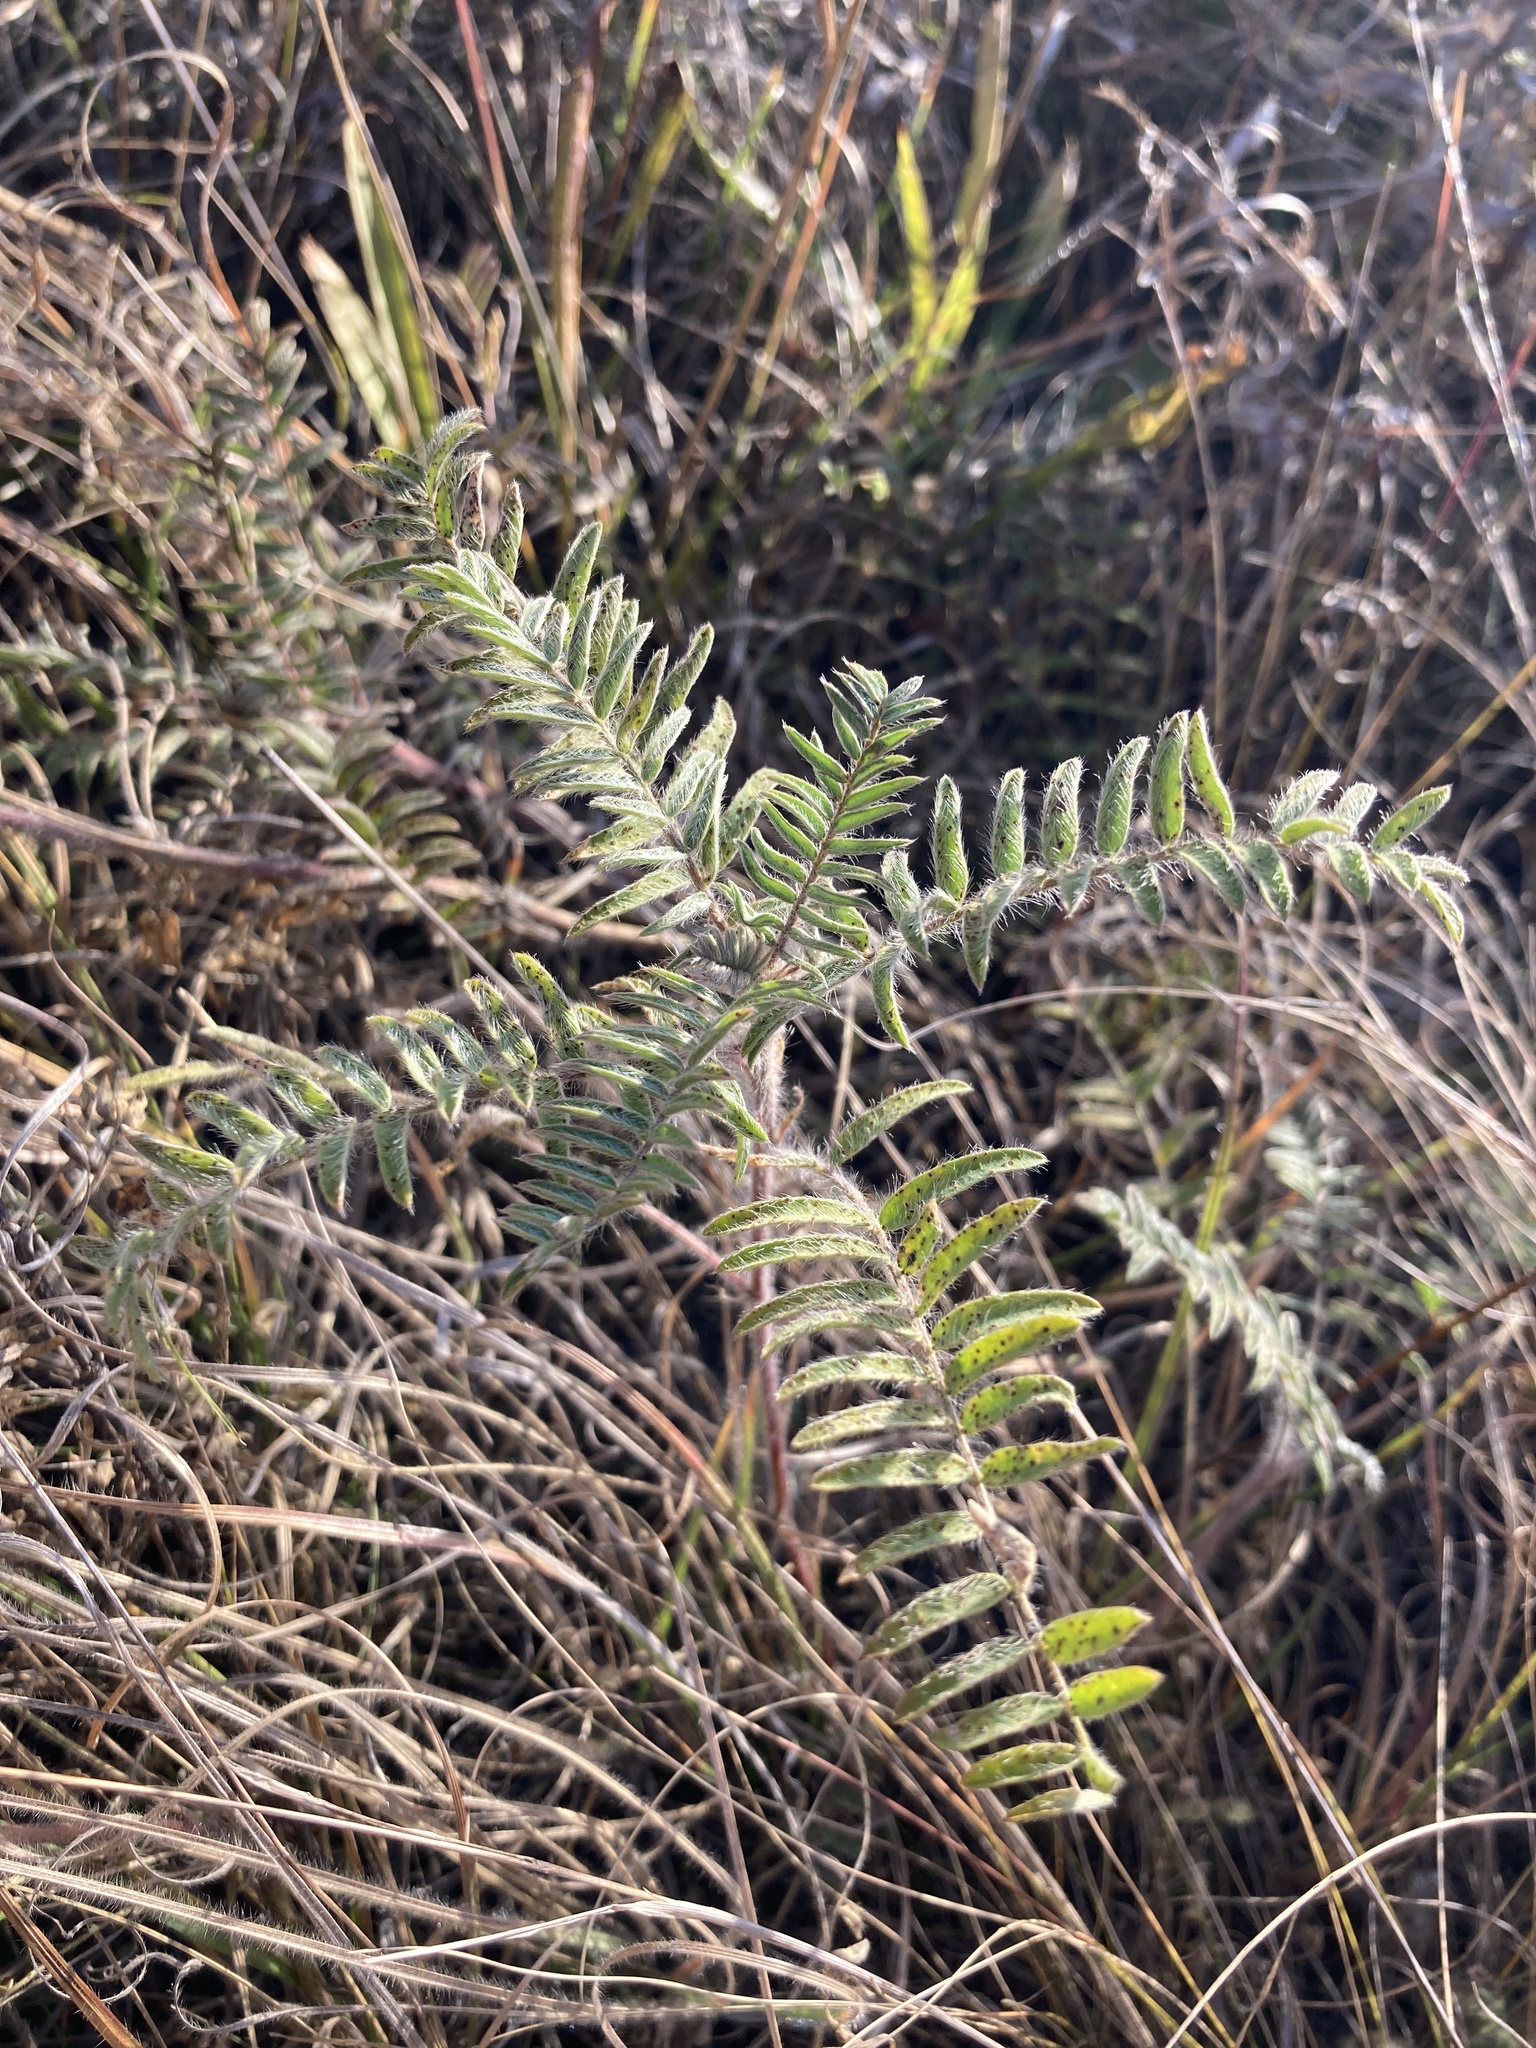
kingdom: Plantae
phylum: Tracheophyta
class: Magnoliopsida
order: Fabales
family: Fabaceae
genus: Oxytropis
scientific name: Oxytropis pilosa
